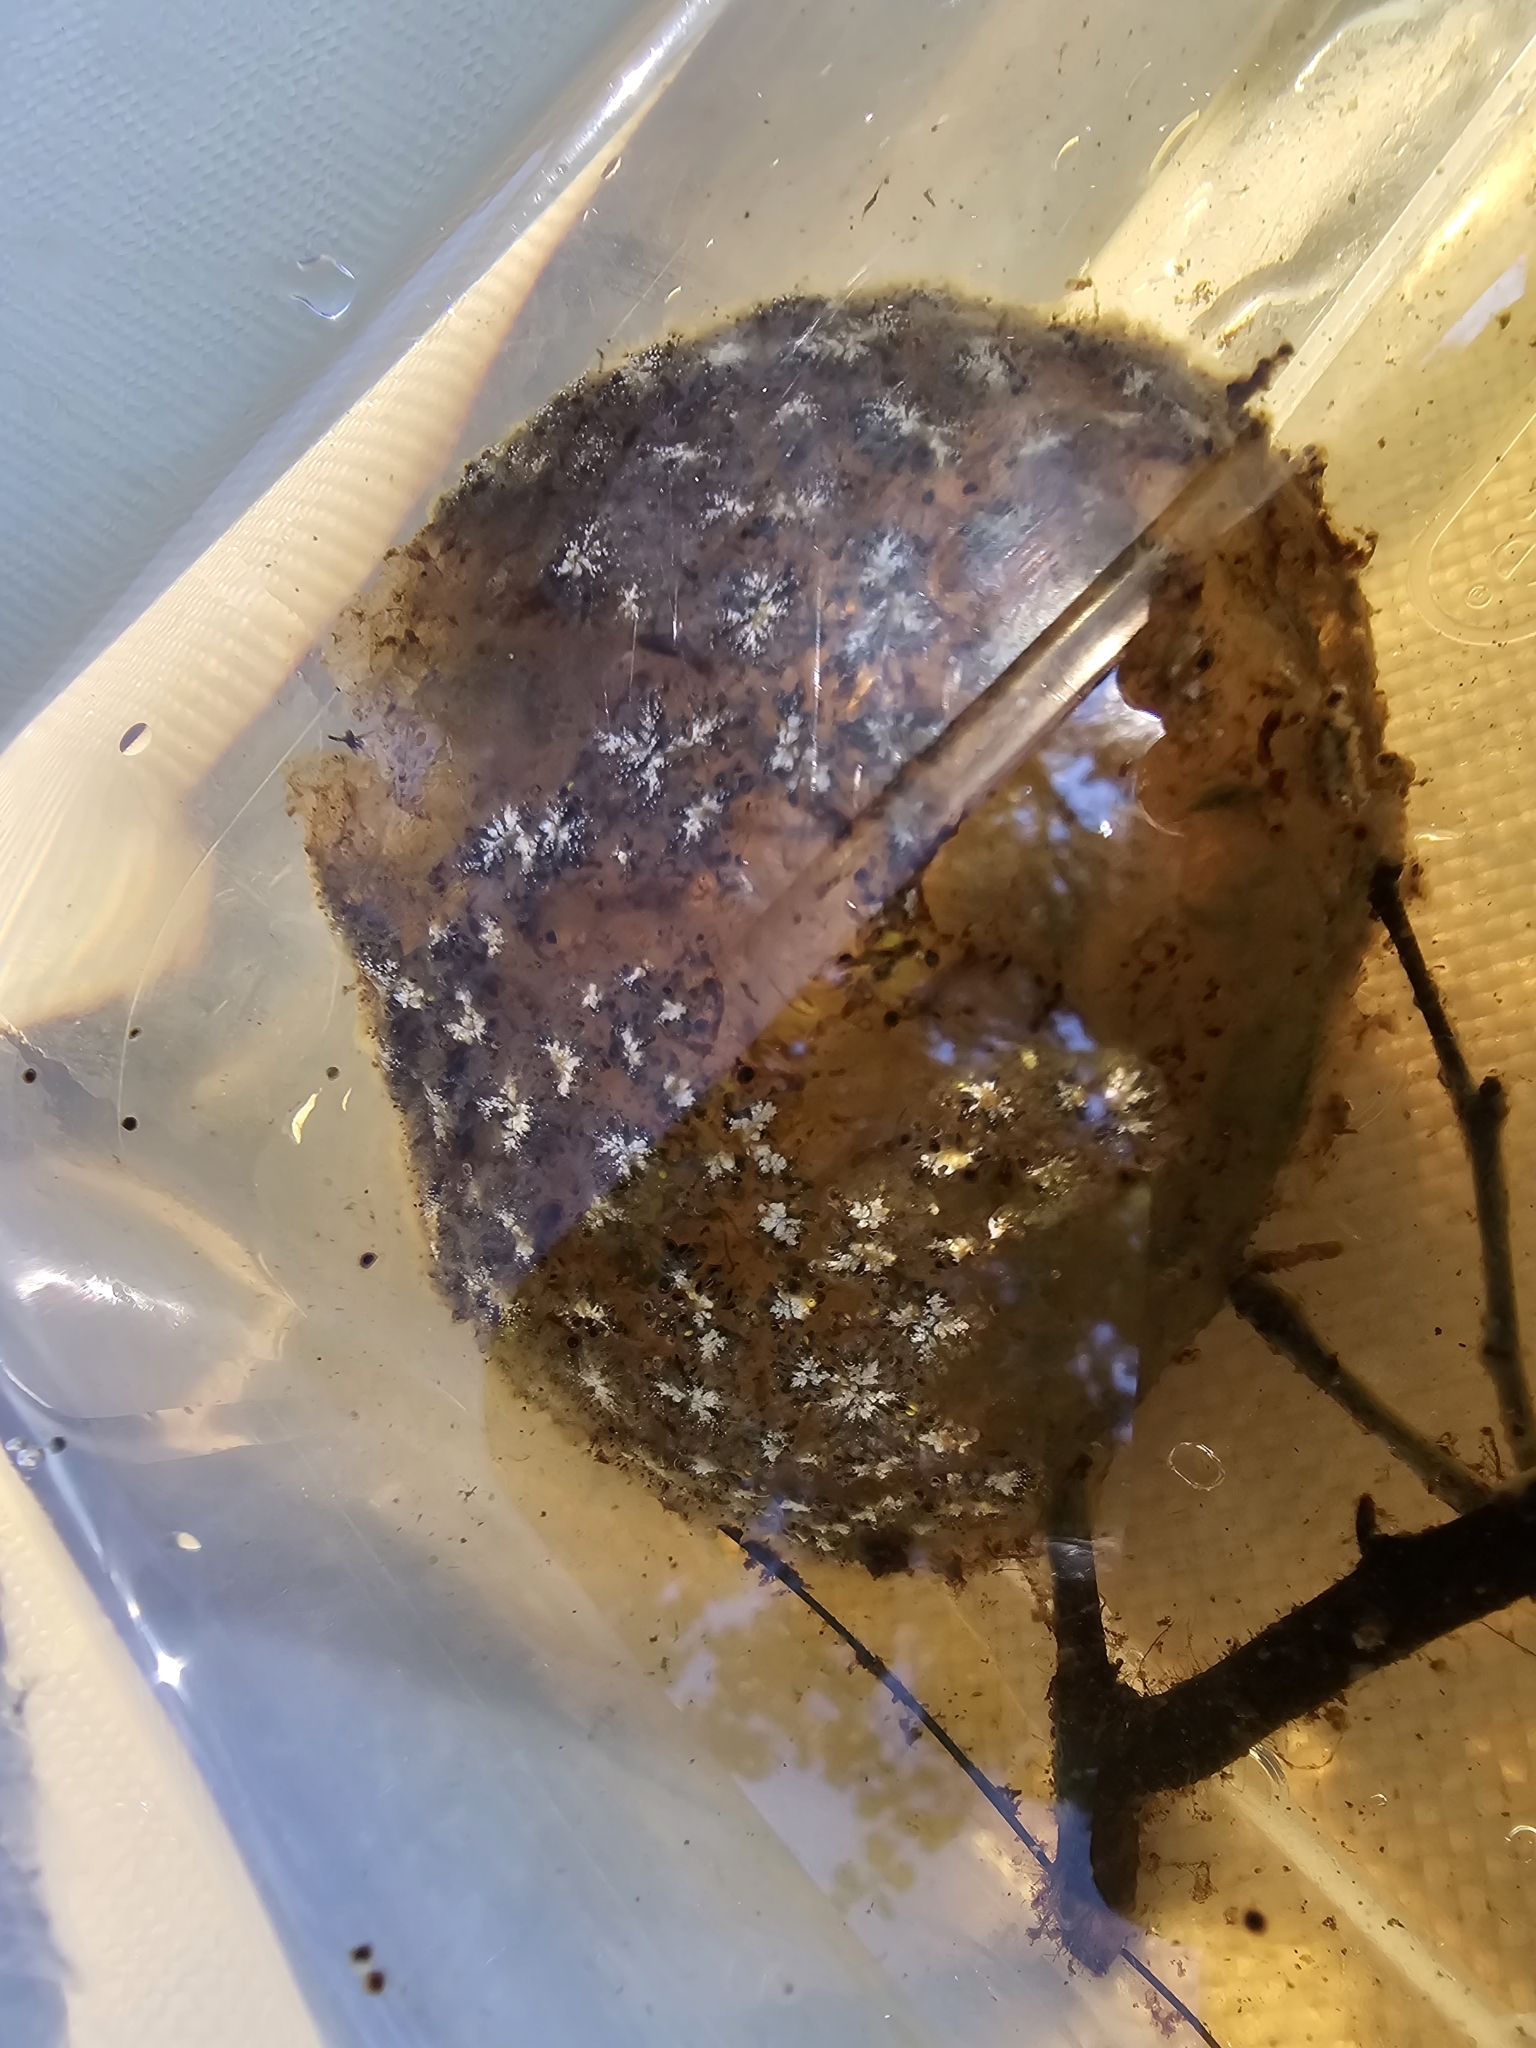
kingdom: Animalia
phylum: Bryozoa
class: Phylactolaemata
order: Plumatellida
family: Pectinatellidae
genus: Pectinatella
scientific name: Pectinatella magnifica
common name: Magnificent bryozoan
